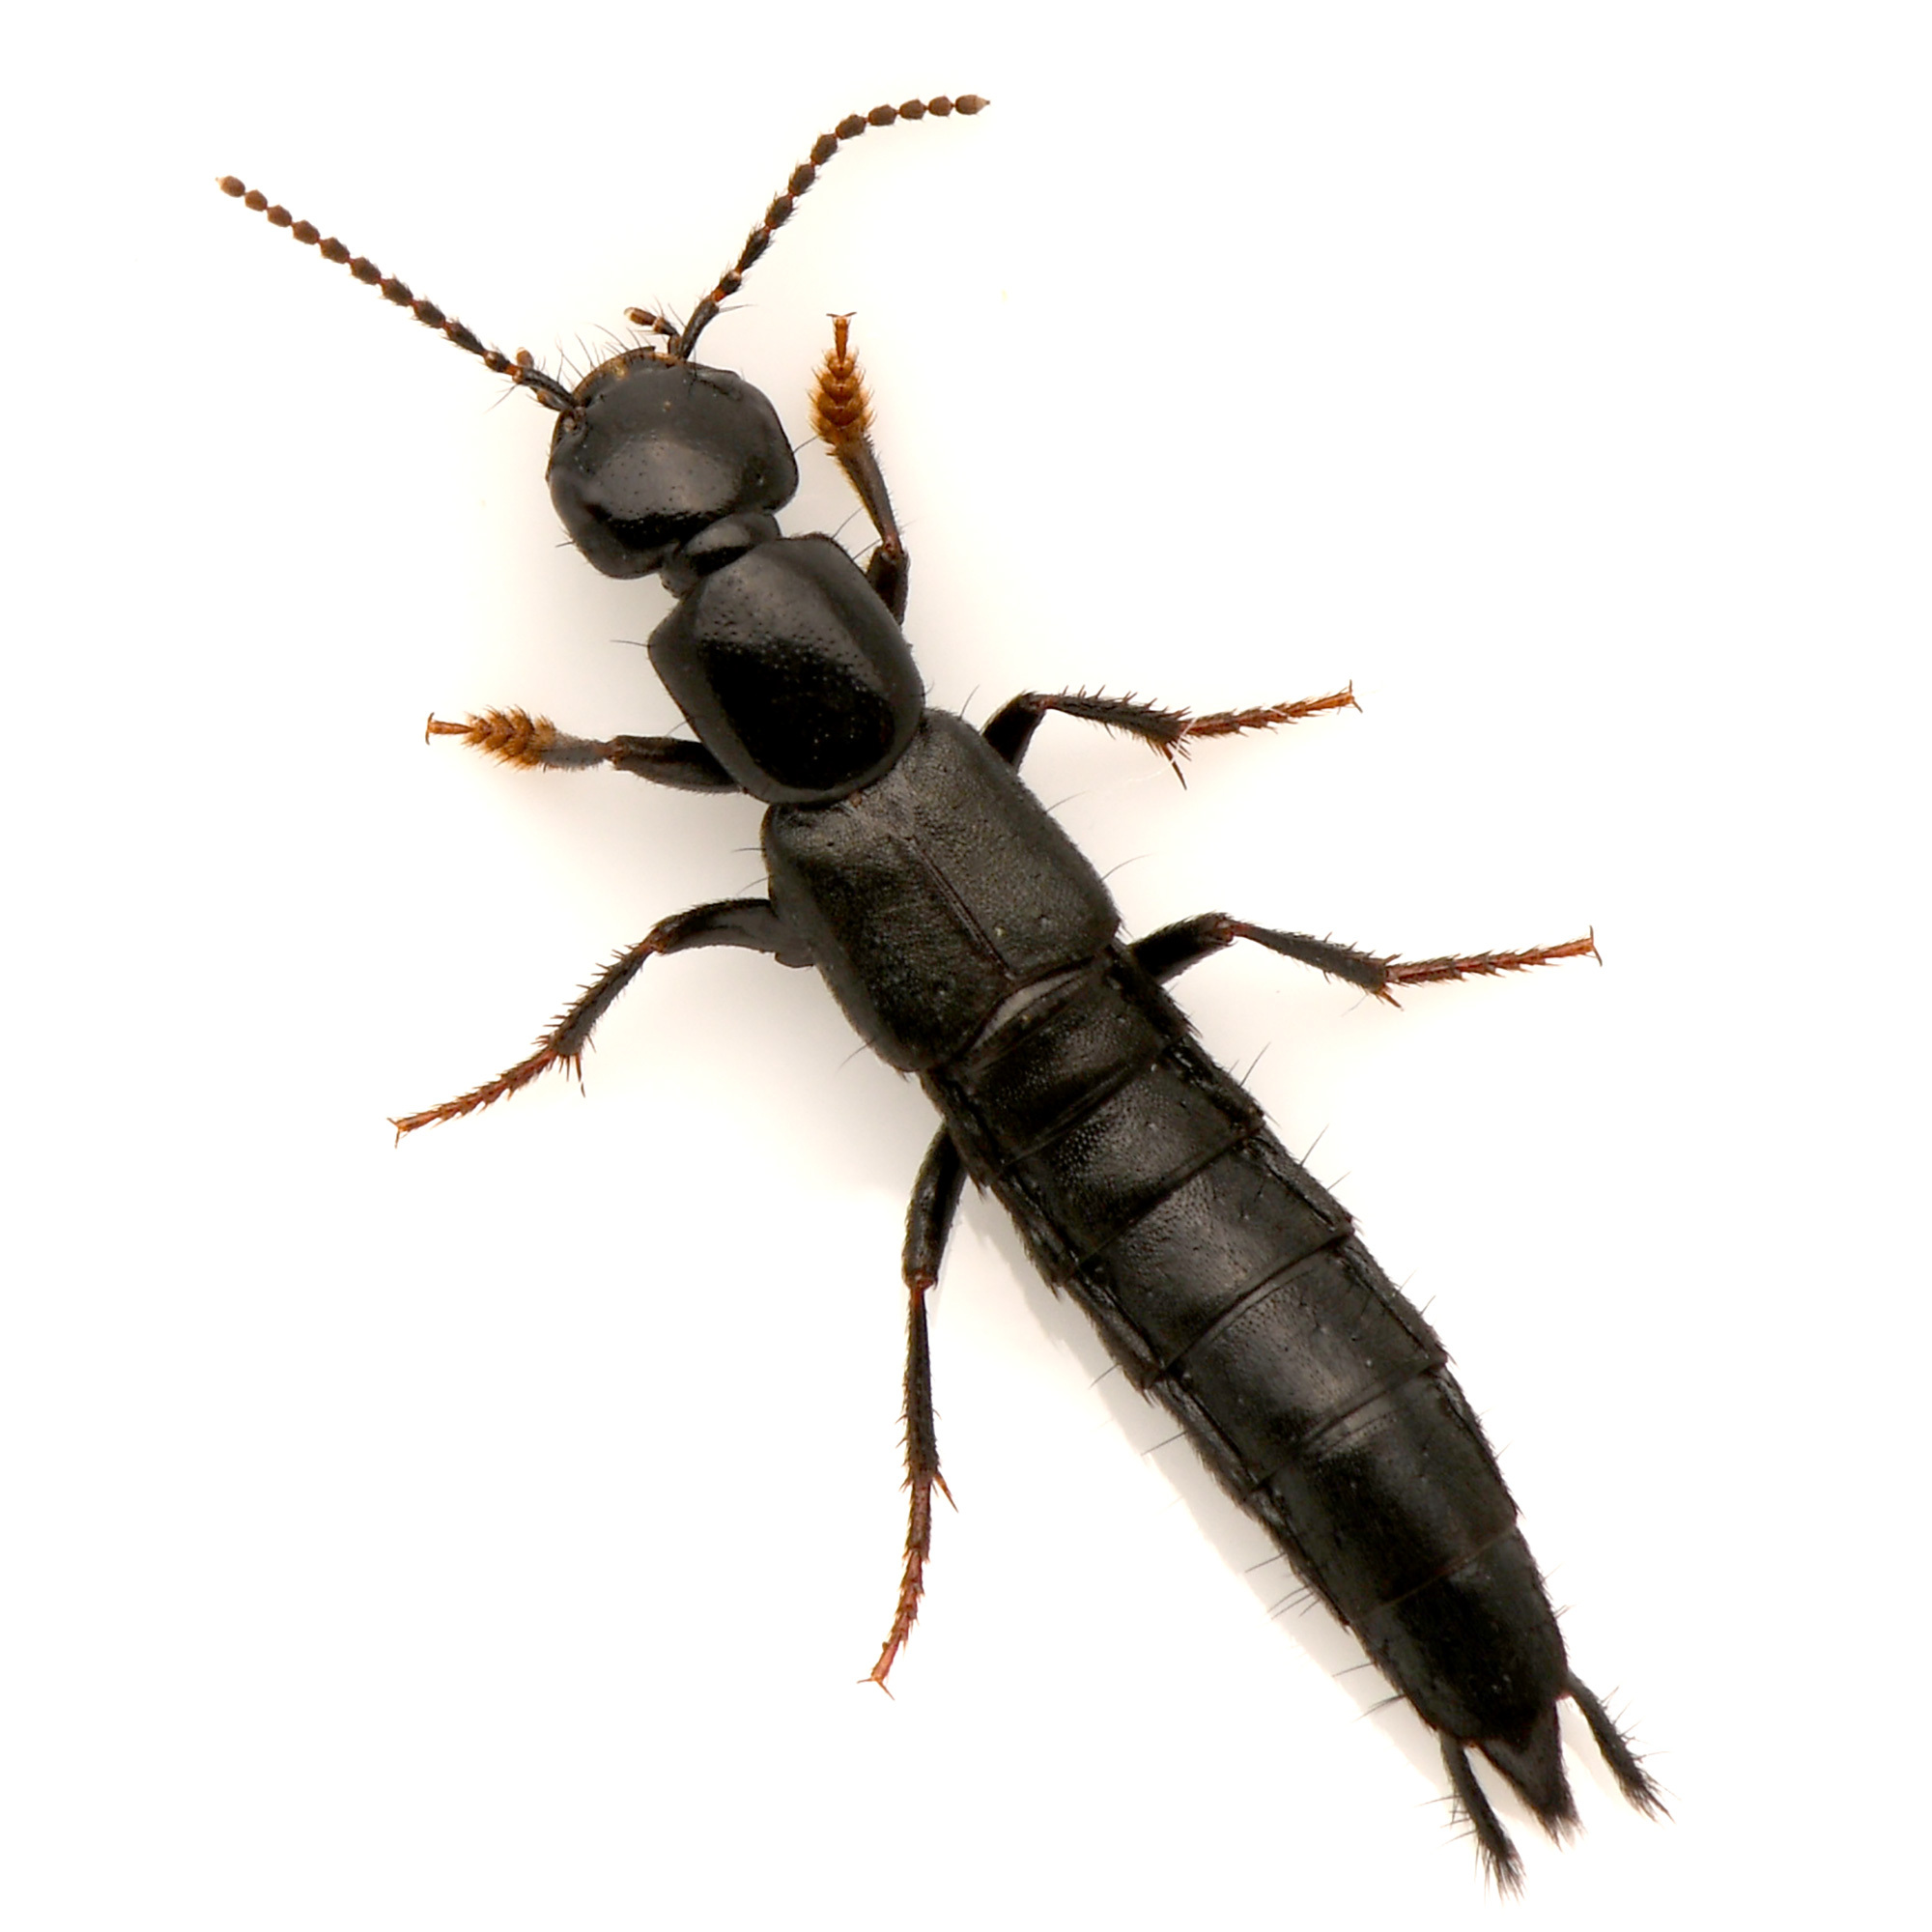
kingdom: Animalia
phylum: Arthropoda
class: Insecta
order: Coleoptera
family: Staphylinidae
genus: Tasgius
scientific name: Tasgius ater
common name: Staph beetle
